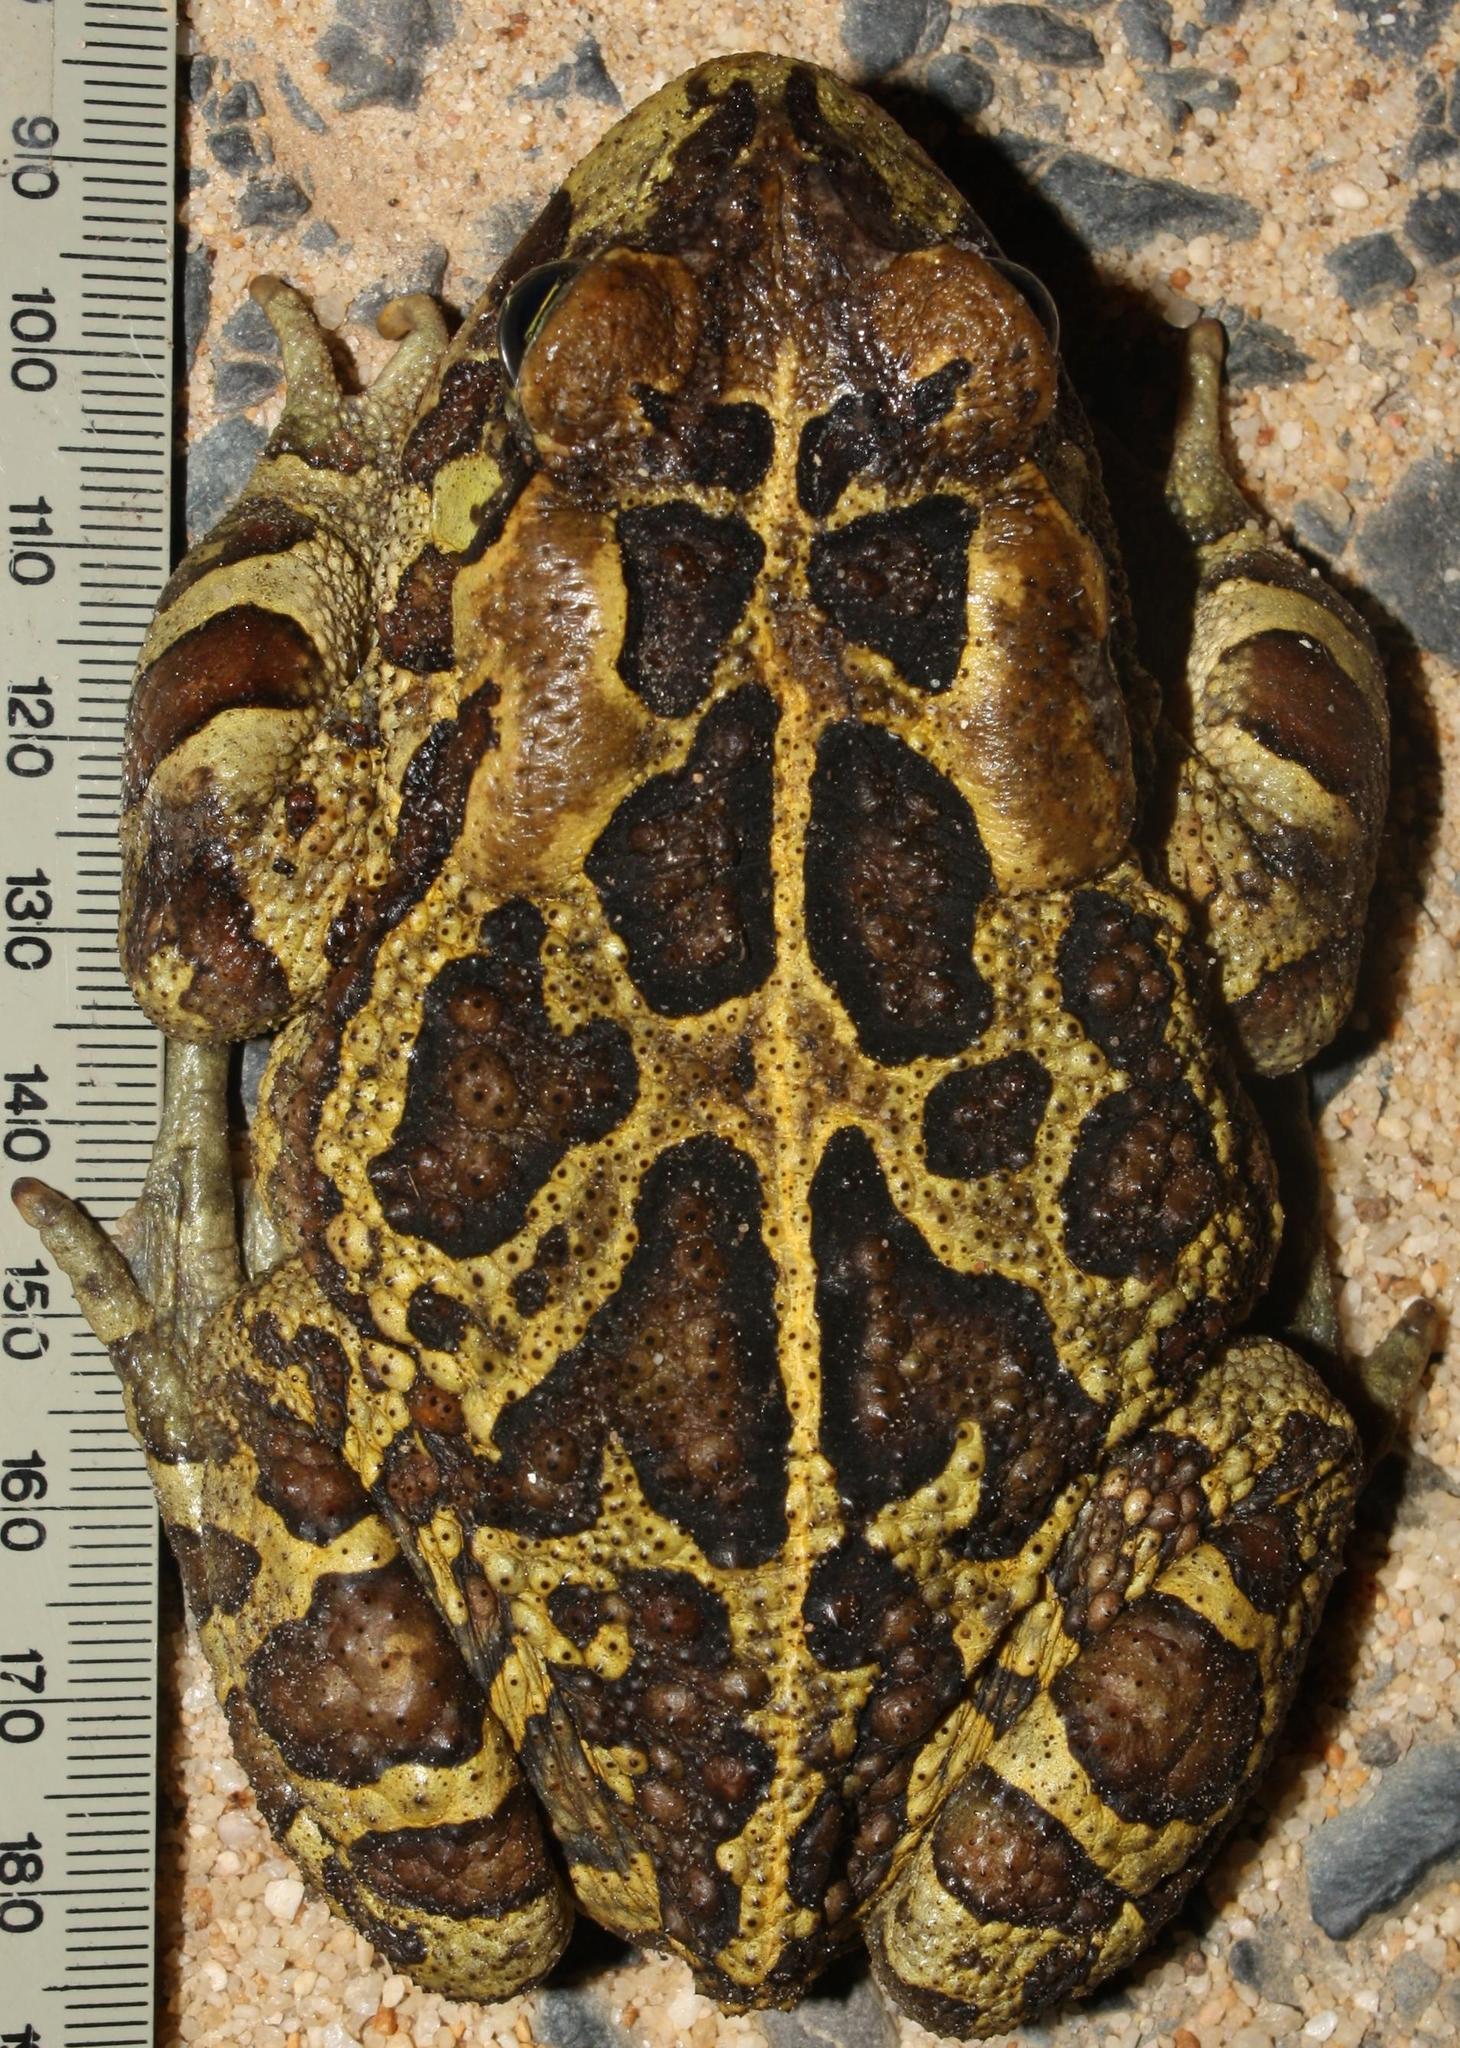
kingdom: Animalia
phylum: Chordata
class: Amphibia
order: Anura
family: Bufonidae
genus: Sclerophrys
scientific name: Sclerophrys pantherina
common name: Panther toad
